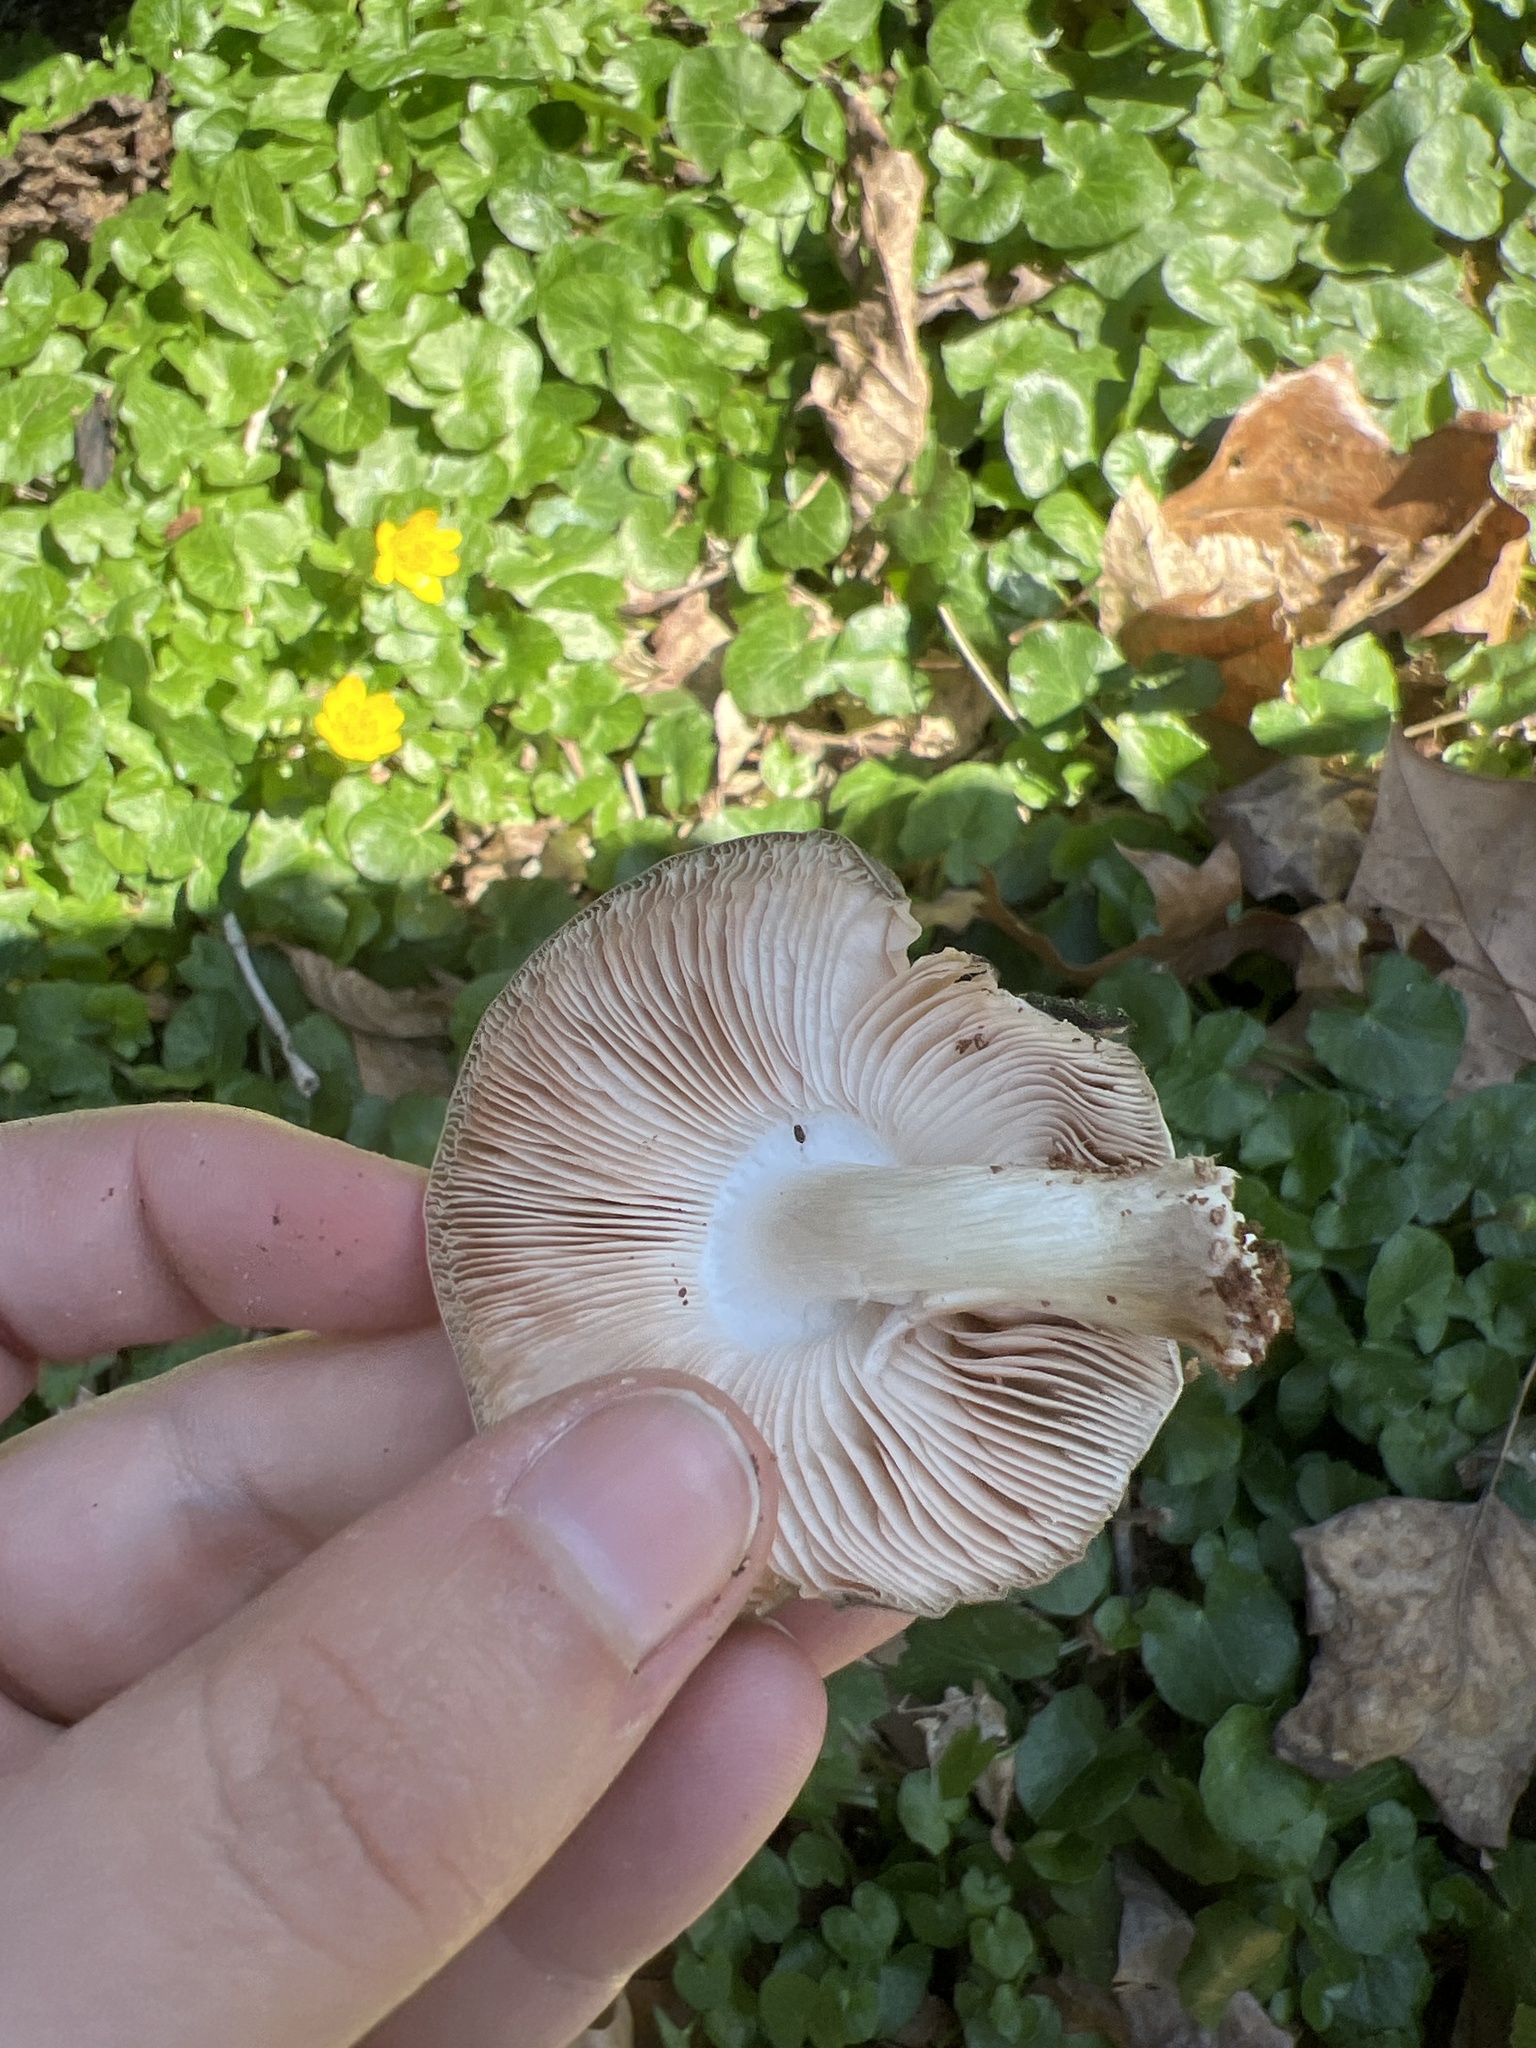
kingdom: Fungi
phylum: Basidiomycota
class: Agaricomycetes
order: Agaricales
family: Pluteaceae
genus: Pluteus
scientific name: Pluteus cervinus
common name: Deer shield
